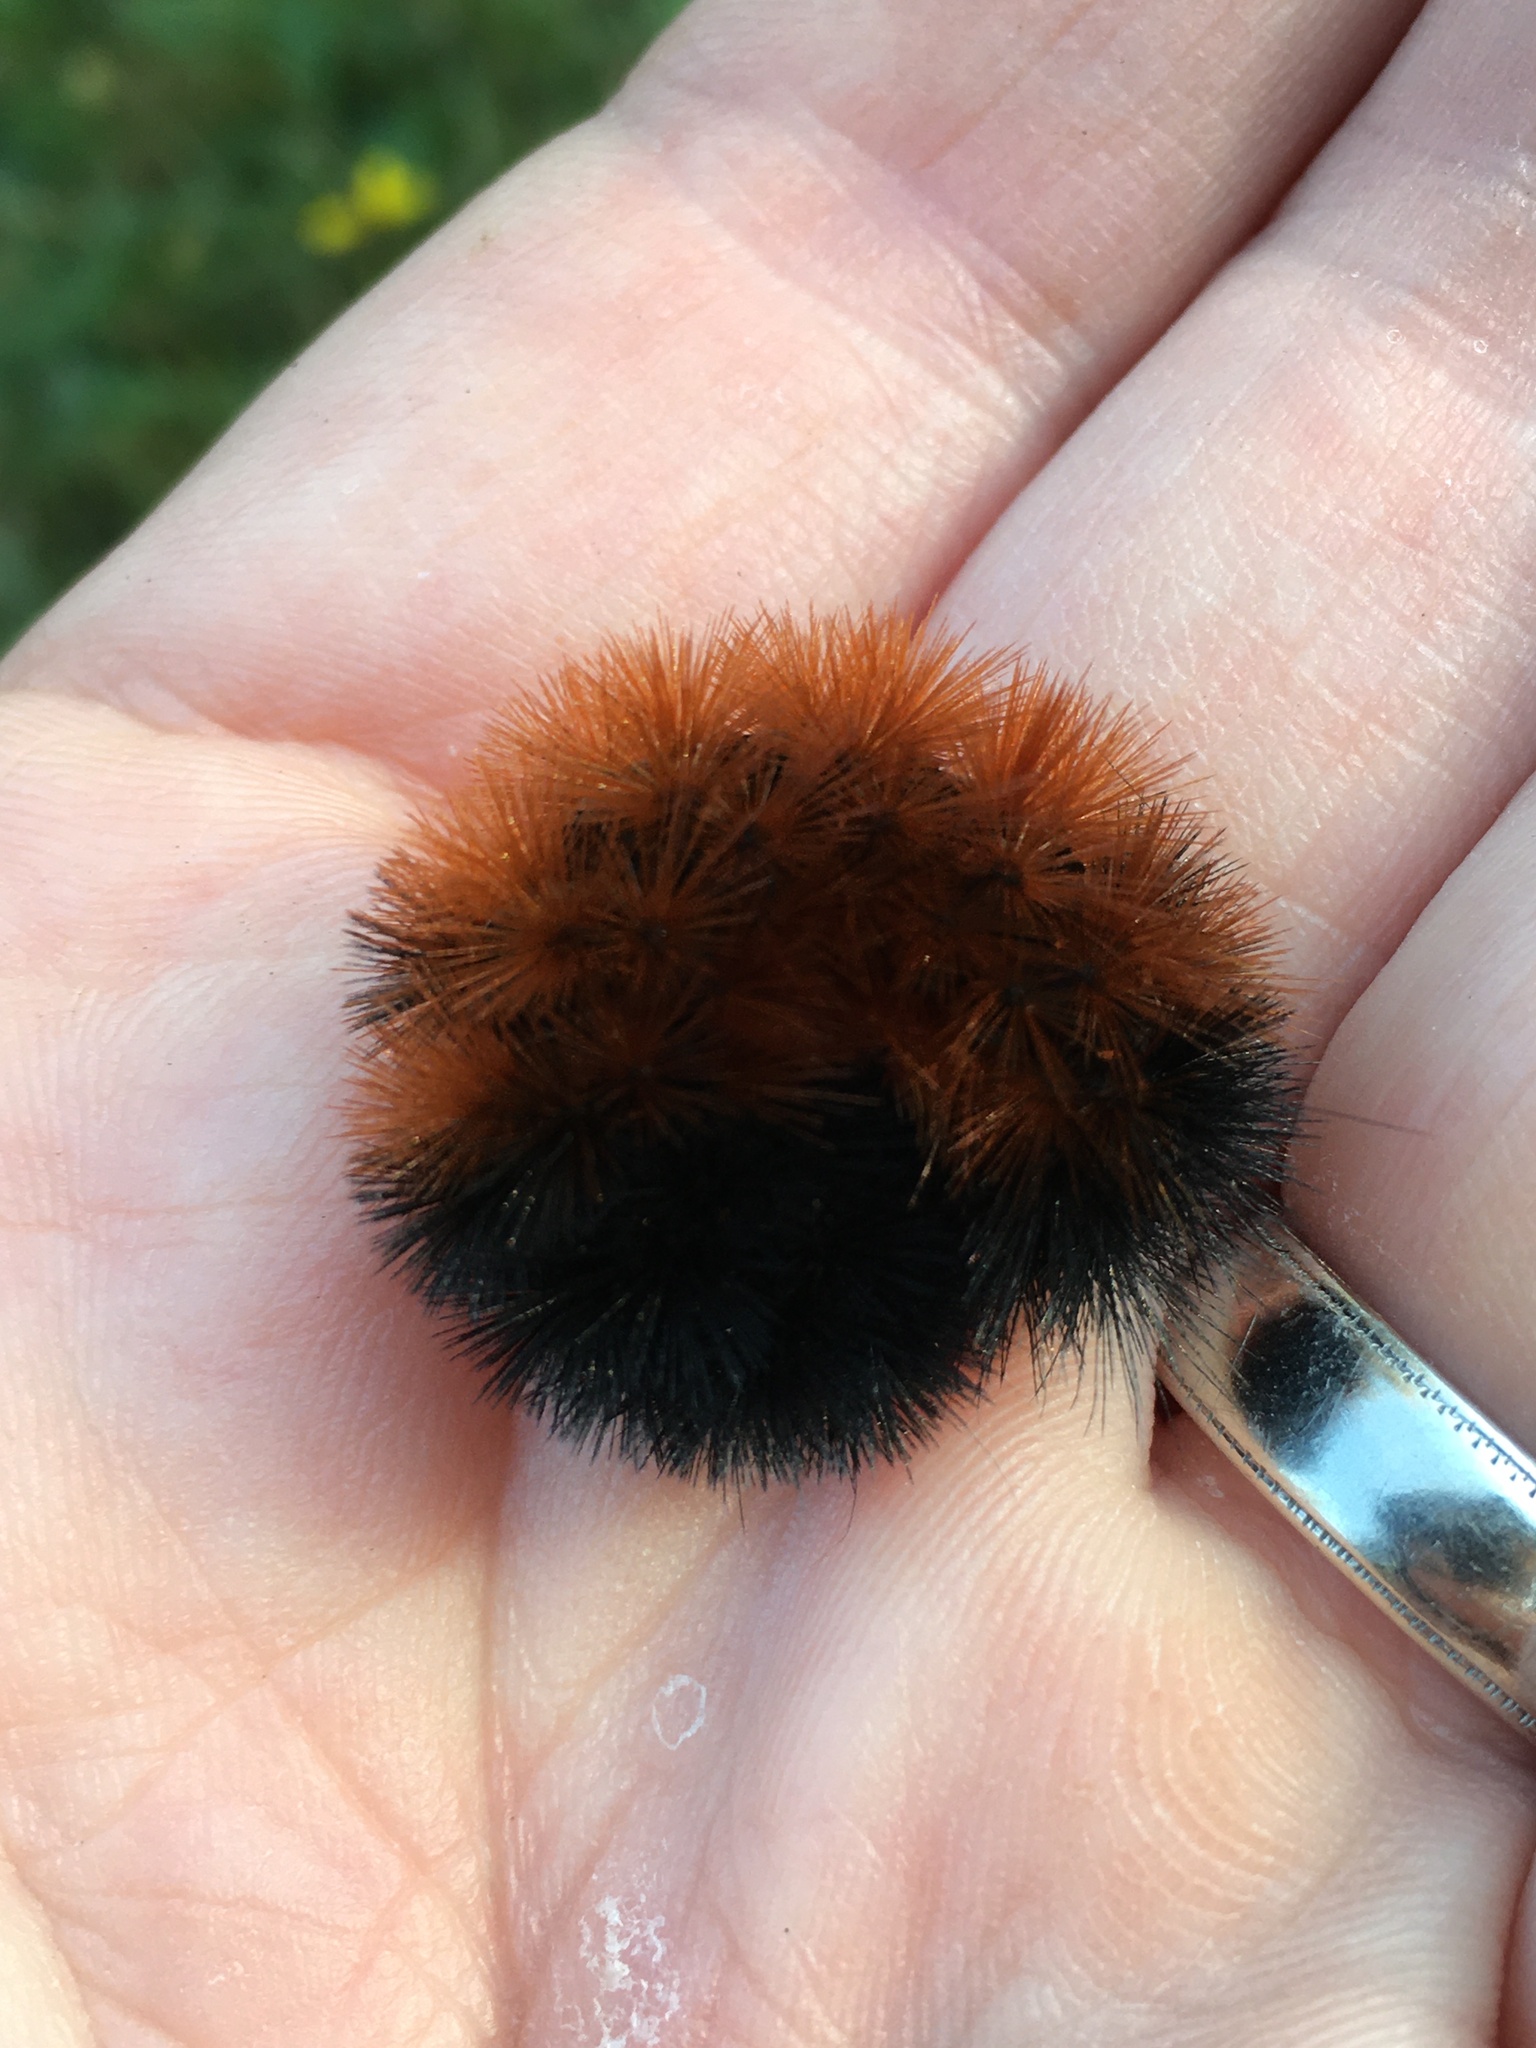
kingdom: Animalia
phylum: Arthropoda
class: Insecta
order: Lepidoptera
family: Erebidae
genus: Pyrrharctia
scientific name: Pyrrharctia isabella
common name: Isabella tiger moth
